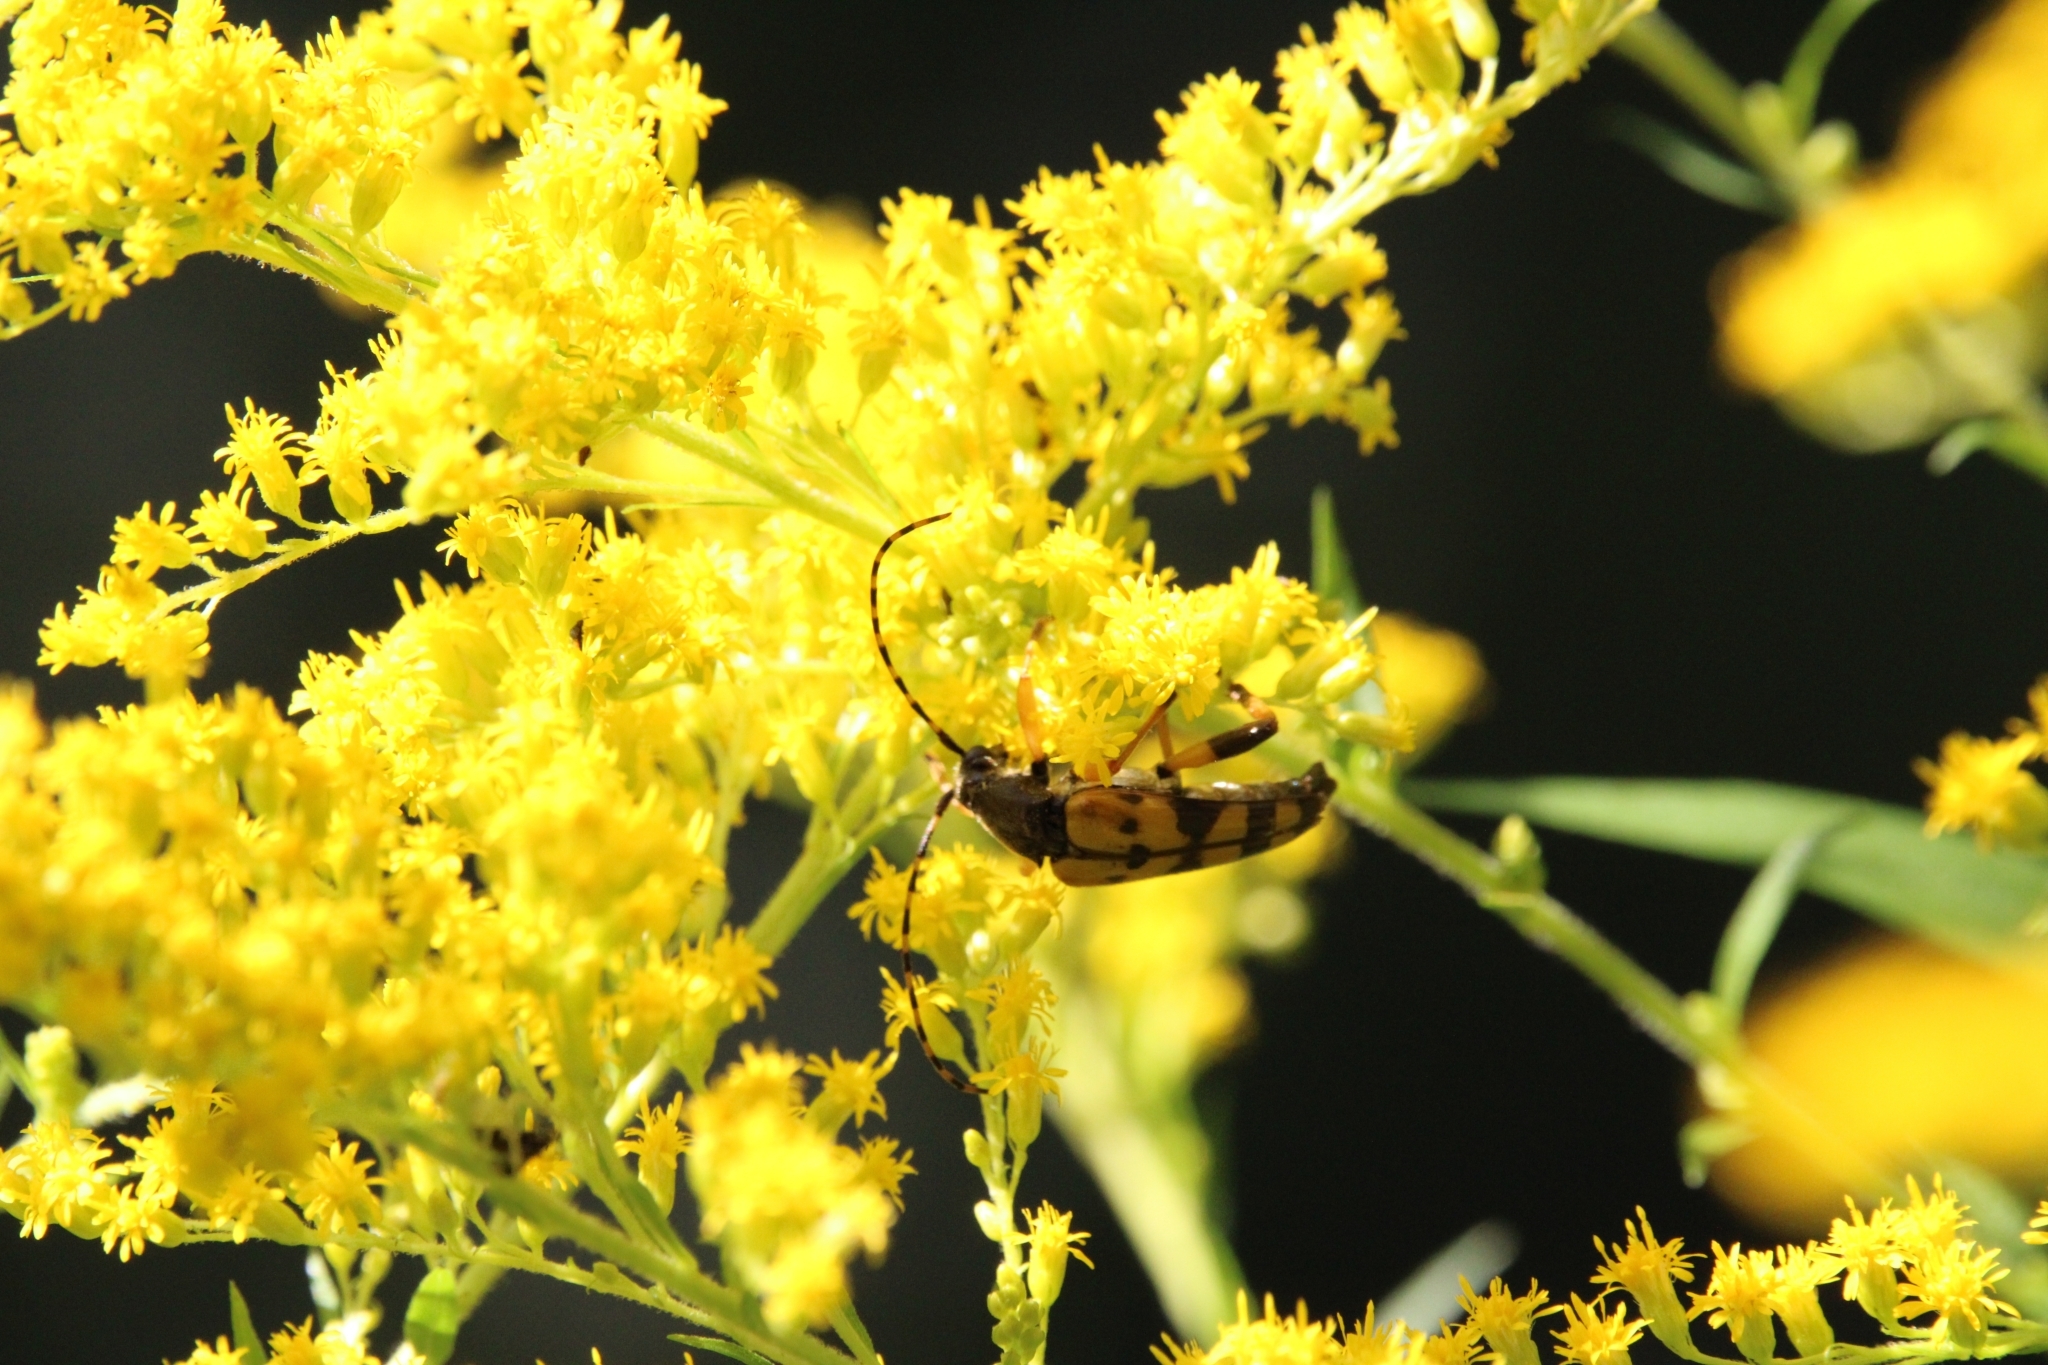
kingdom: Animalia
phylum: Arthropoda
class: Insecta
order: Coleoptera
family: Cerambycidae
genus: Rutpela
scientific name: Rutpela maculata
